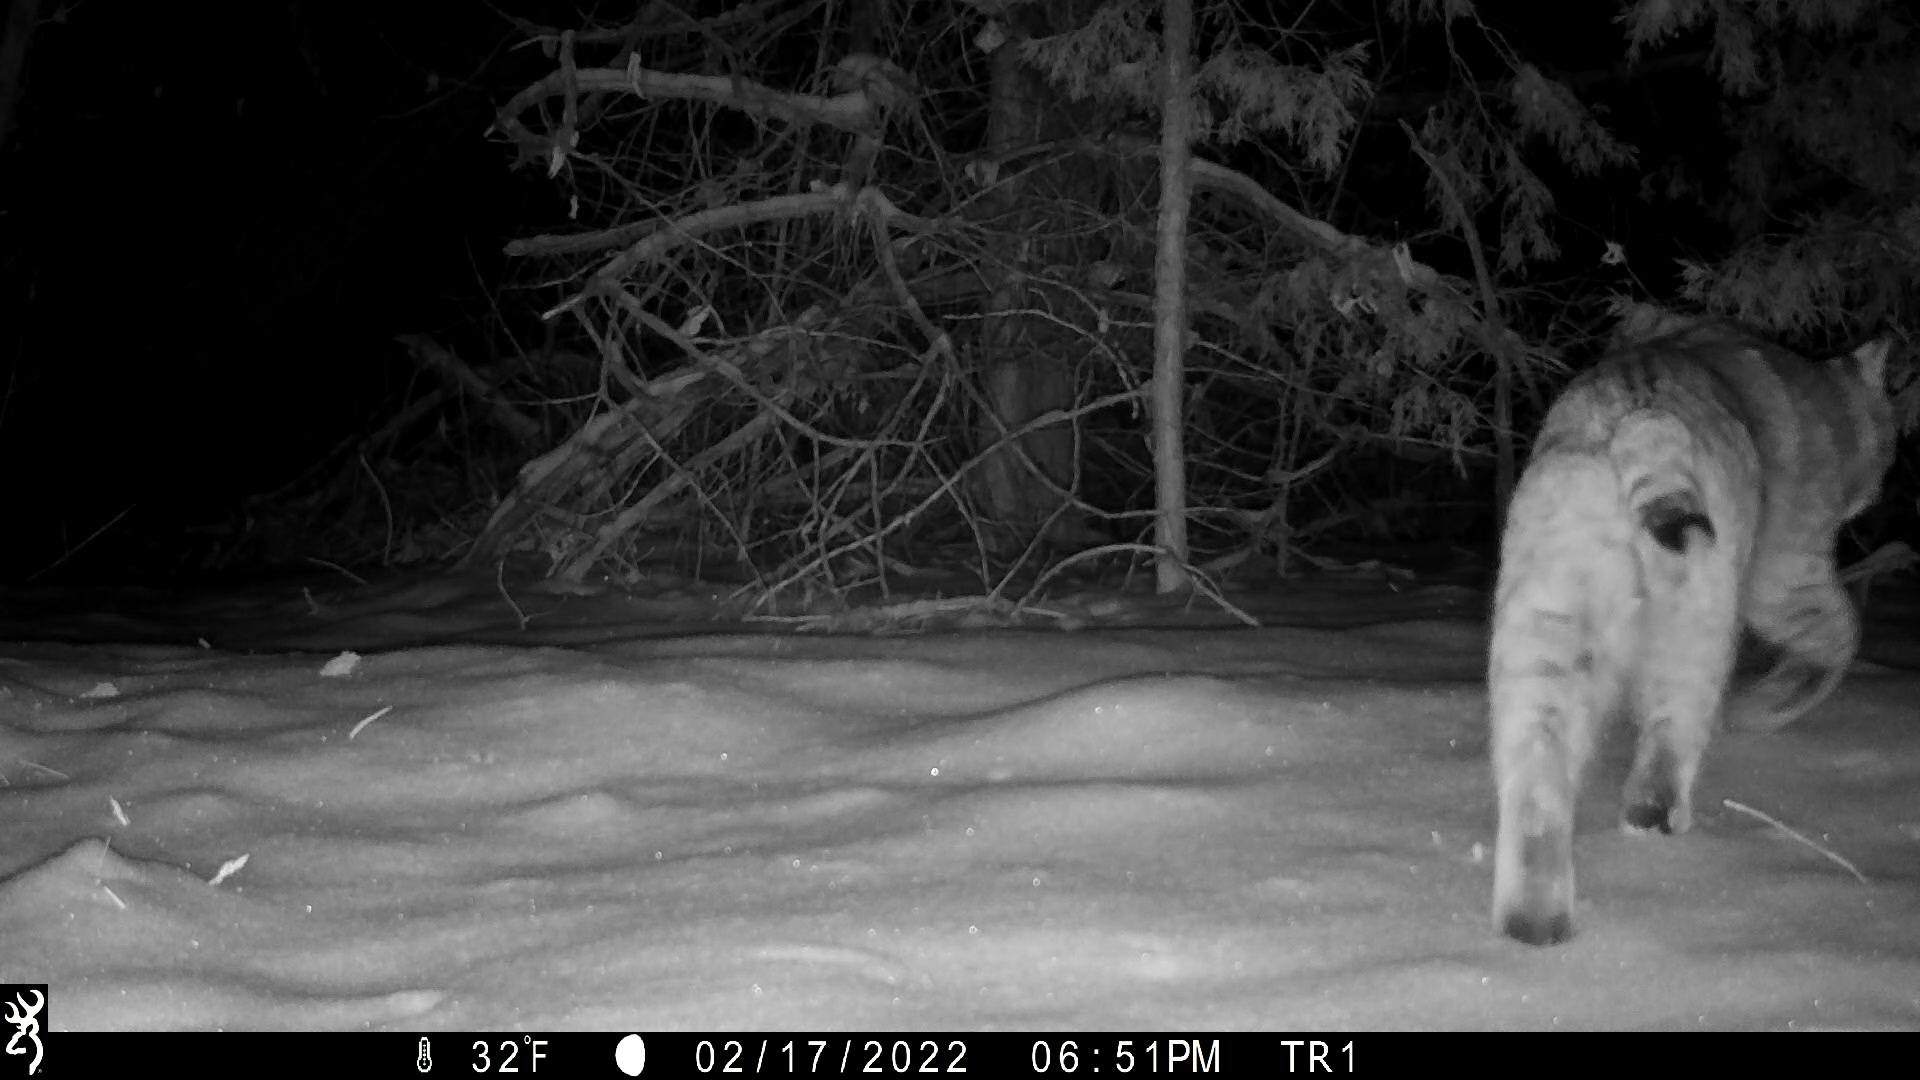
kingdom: Animalia
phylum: Chordata
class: Mammalia
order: Carnivora
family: Felidae
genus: Lynx
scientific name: Lynx rufus
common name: Bobcat
